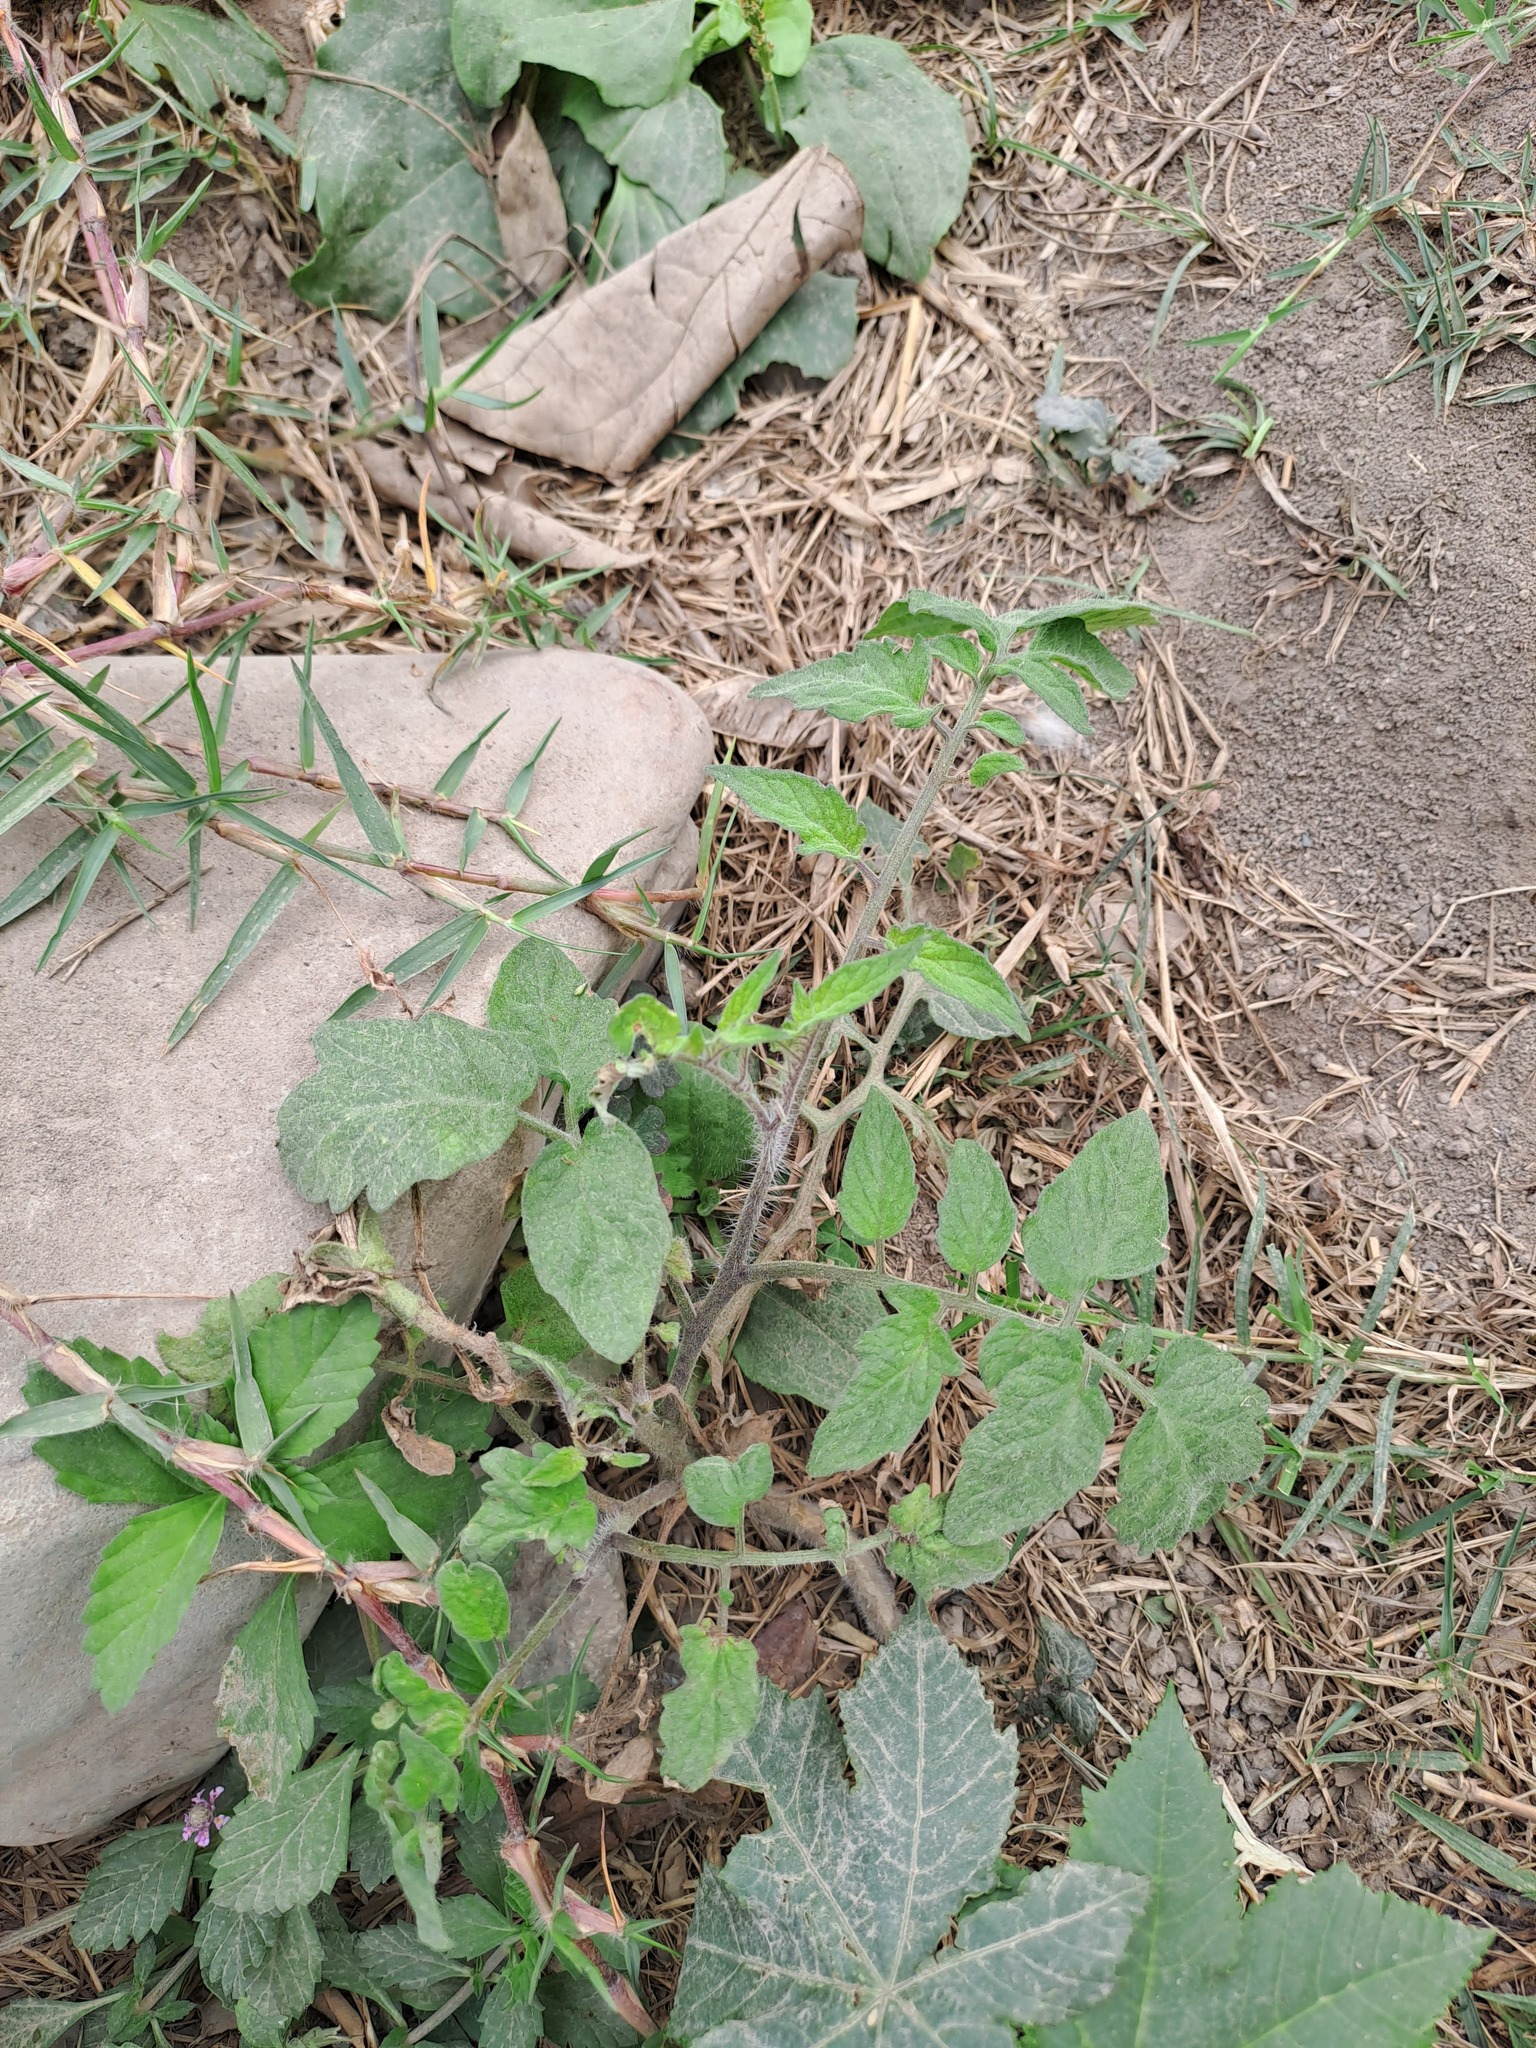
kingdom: Plantae
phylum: Tracheophyta
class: Magnoliopsida
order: Solanales
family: Solanaceae
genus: Solanum
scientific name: Solanum lycopersicum
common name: Garden tomato
